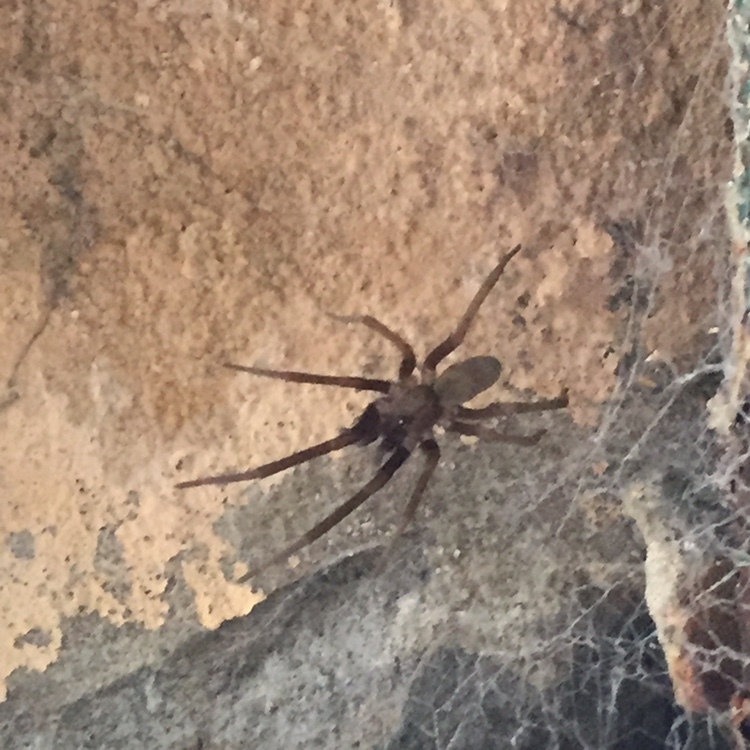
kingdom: Animalia
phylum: Arthropoda
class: Arachnida
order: Araneae
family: Filistatidae
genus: Kukulcania
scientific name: Kukulcania hibernalis
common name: Crevice weaver
